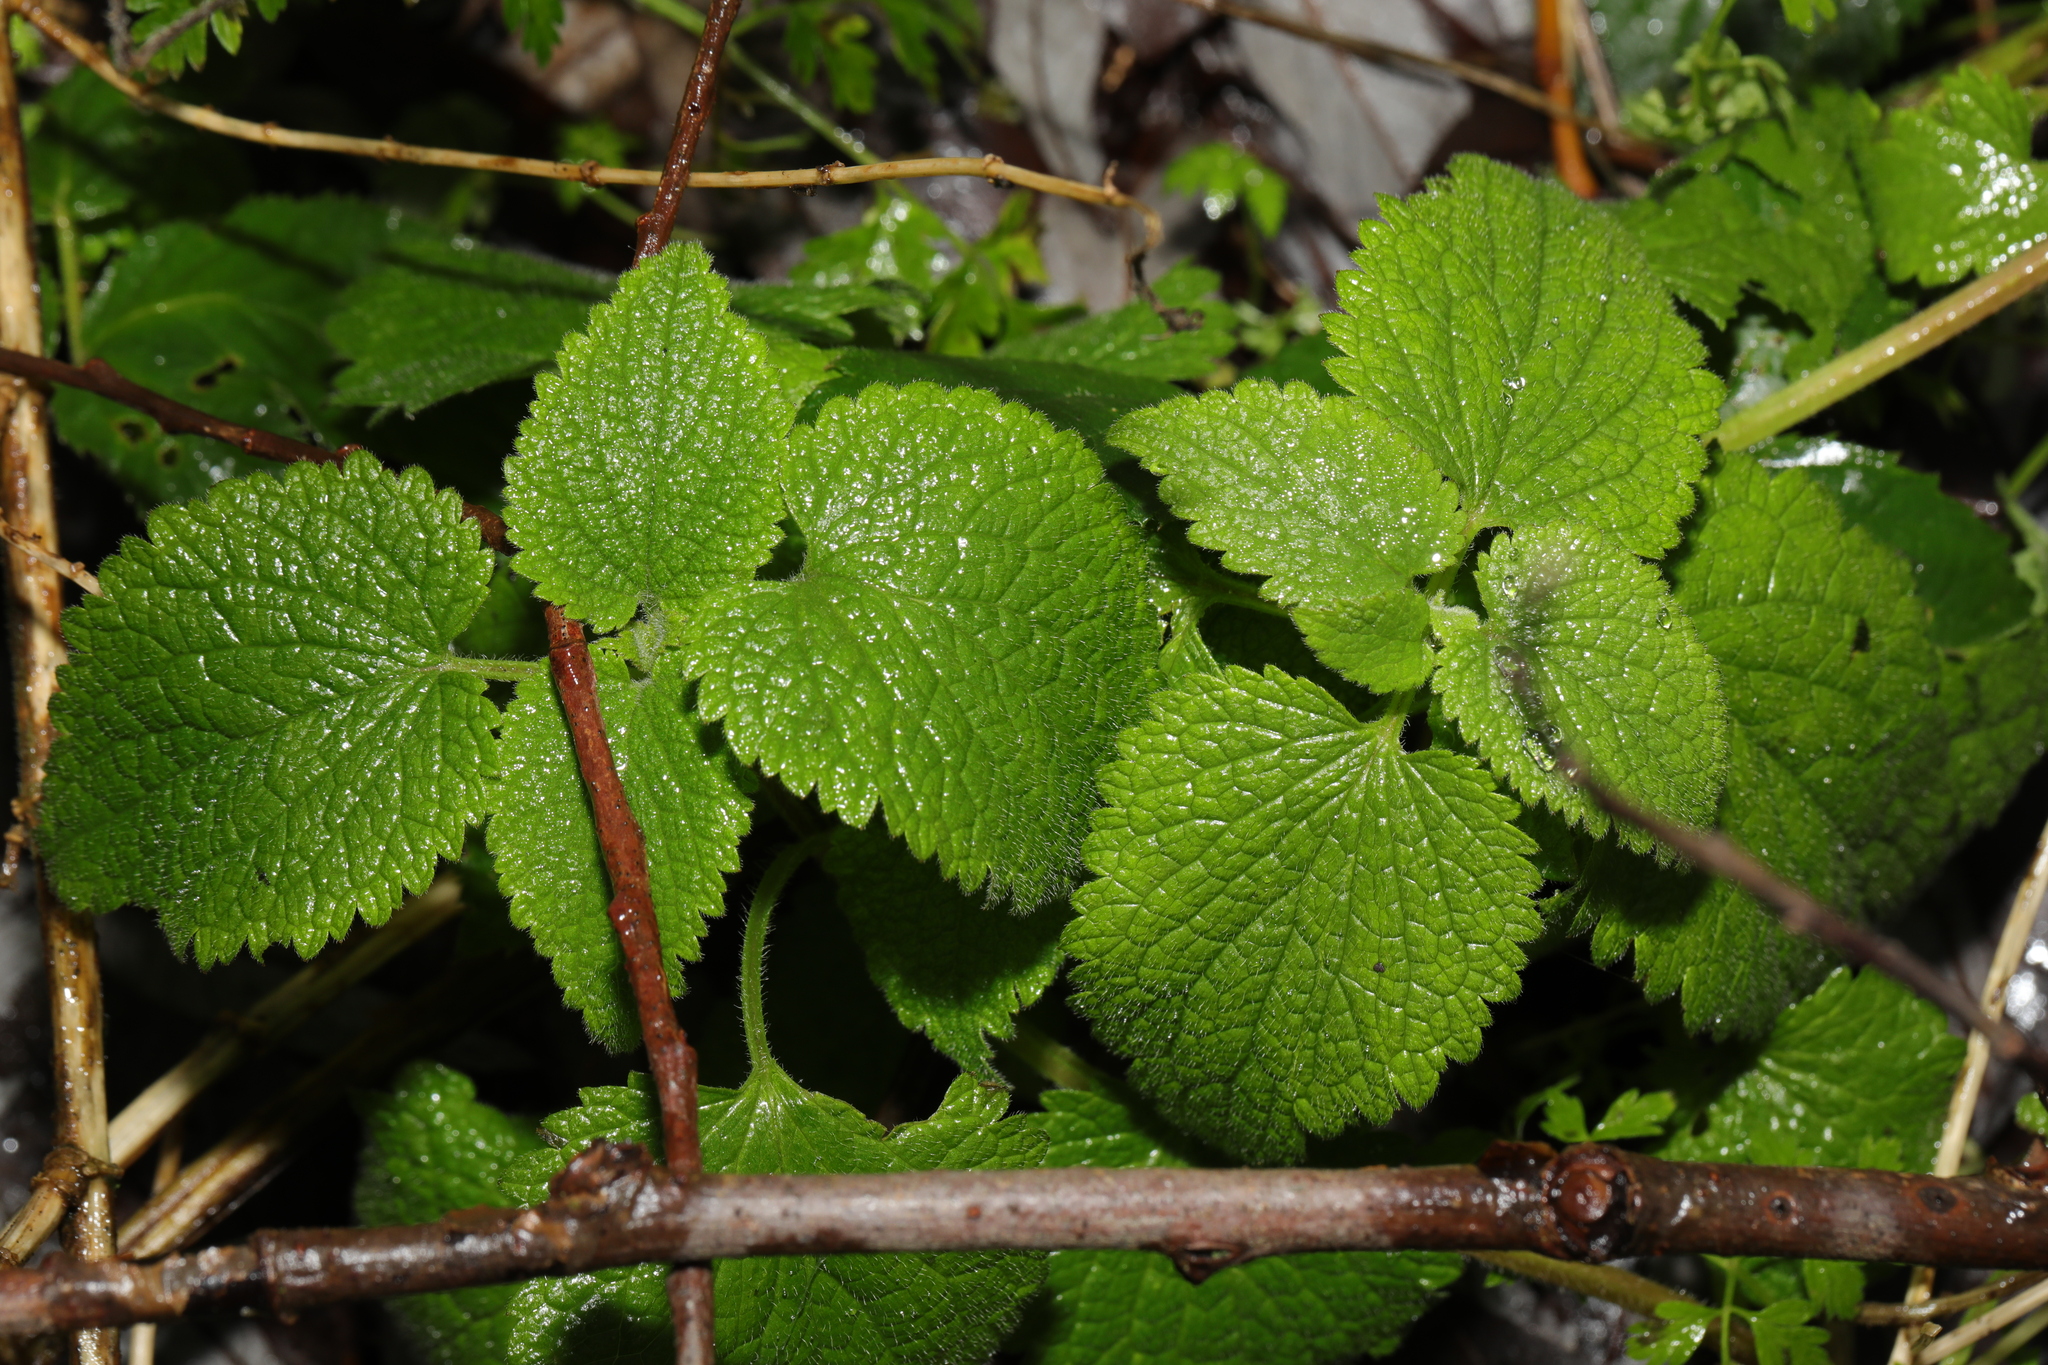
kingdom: Plantae
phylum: Tracheophyta
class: Magnoliopsida
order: Lamiales
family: Lamiaceae
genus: Lamium
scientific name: Lamium album
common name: White dead-nettle
